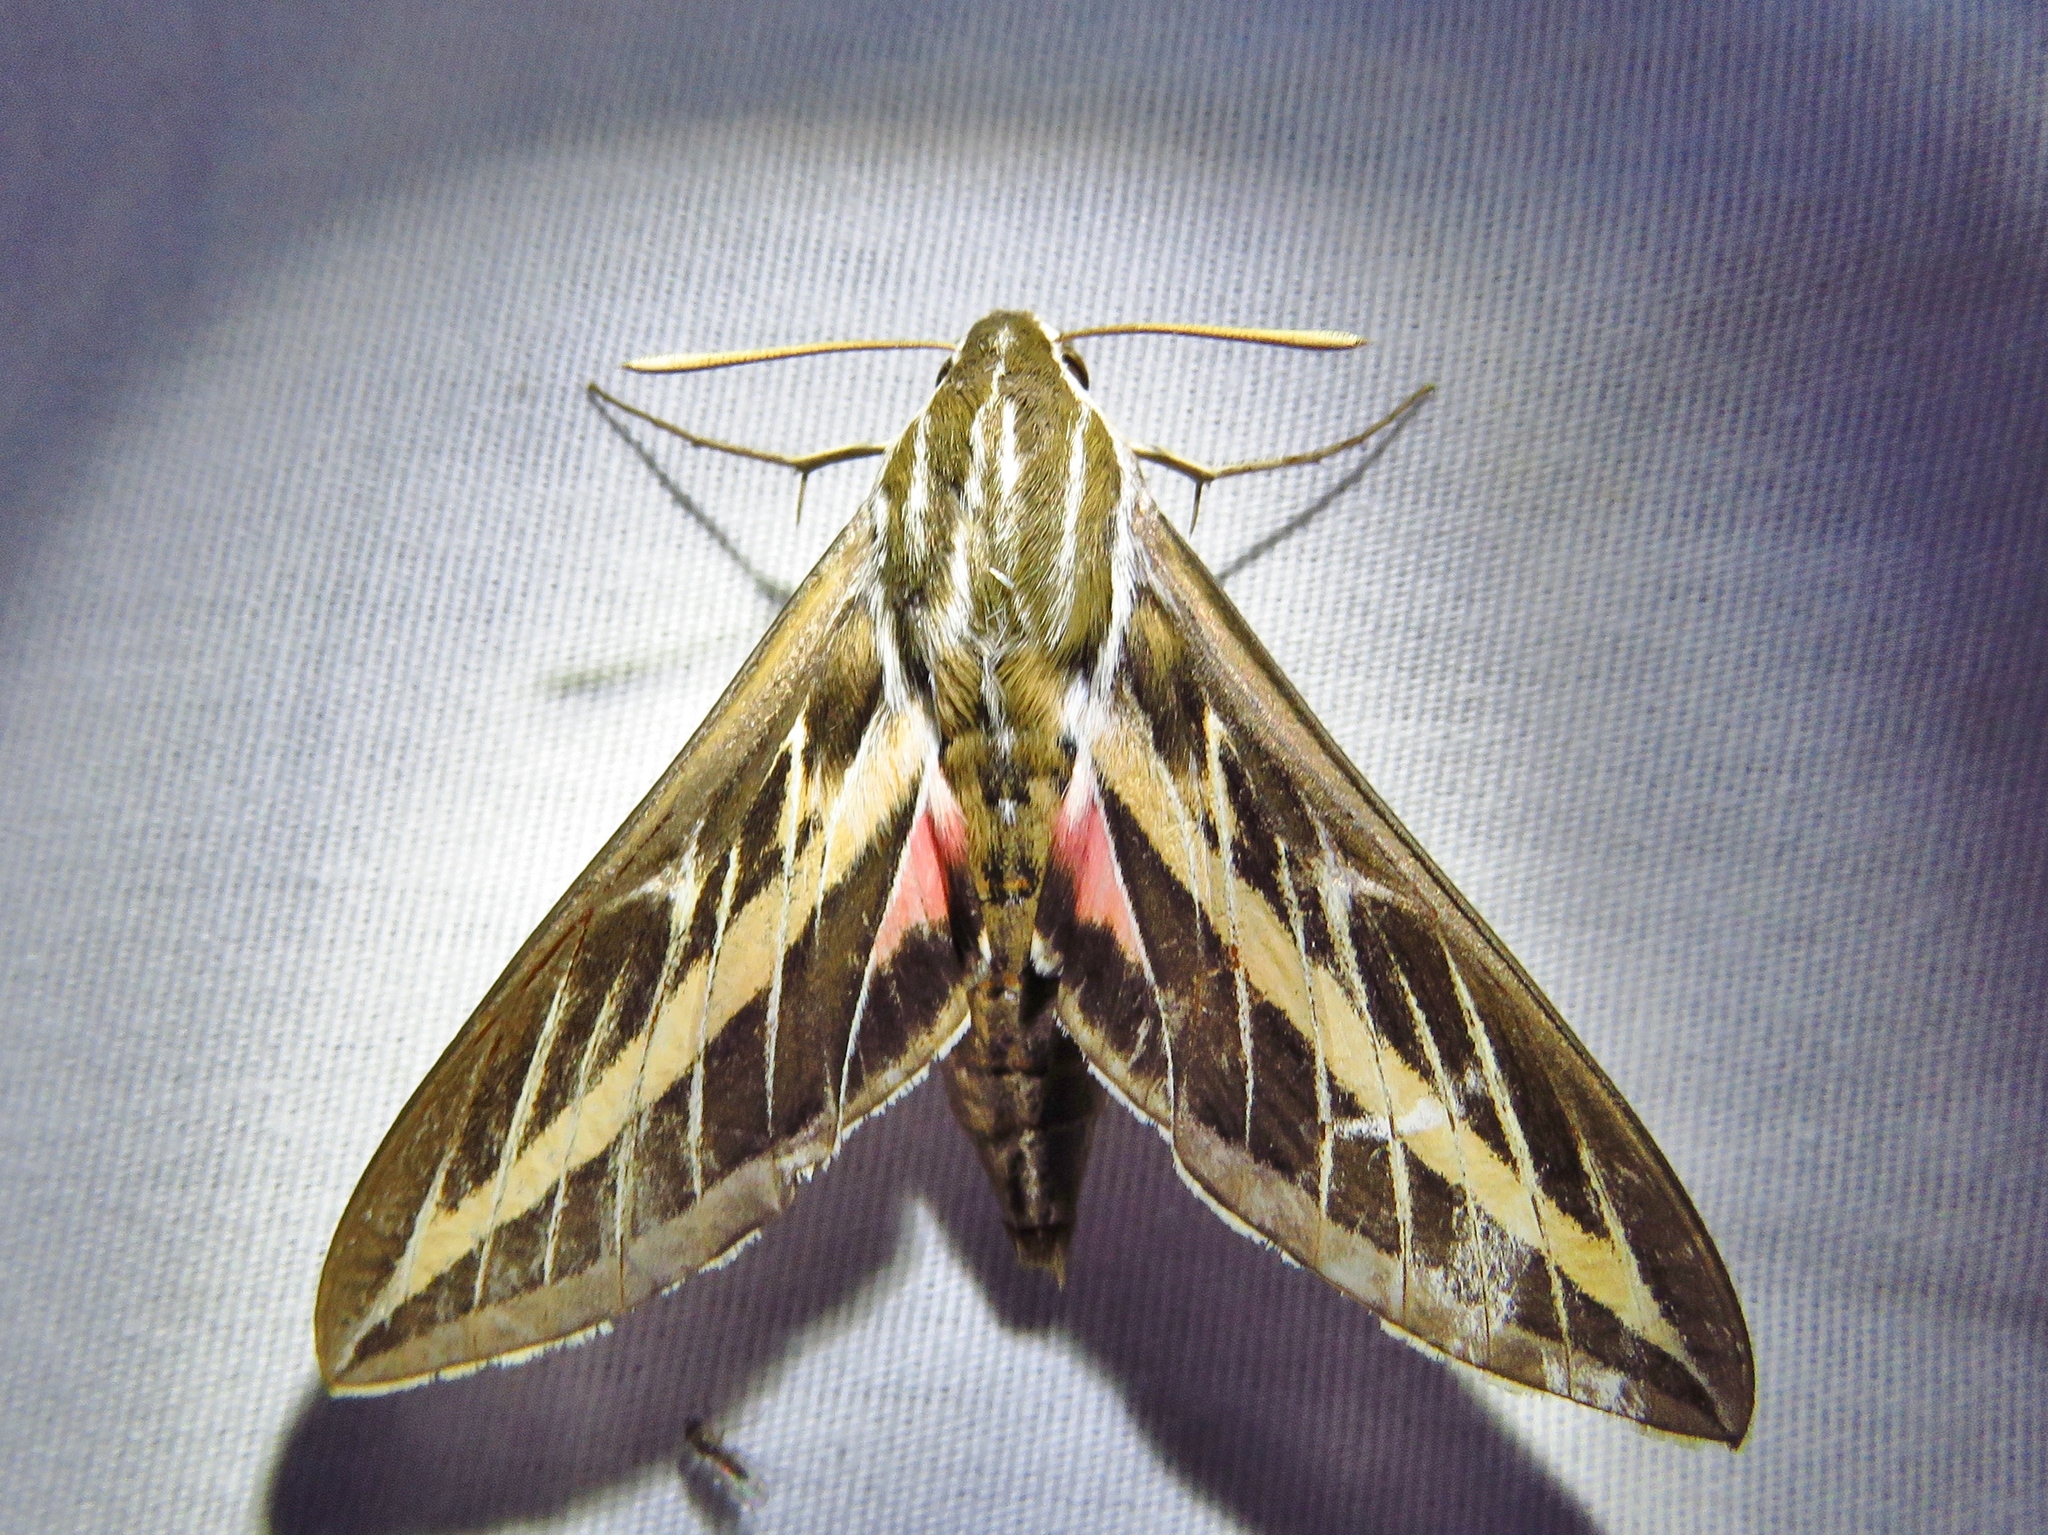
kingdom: Animalia
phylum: Arthropoda
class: Insecta
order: Lepidoptera
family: Sphingidae
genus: Hyles
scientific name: Hyles lineata
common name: White-lined sphinx
